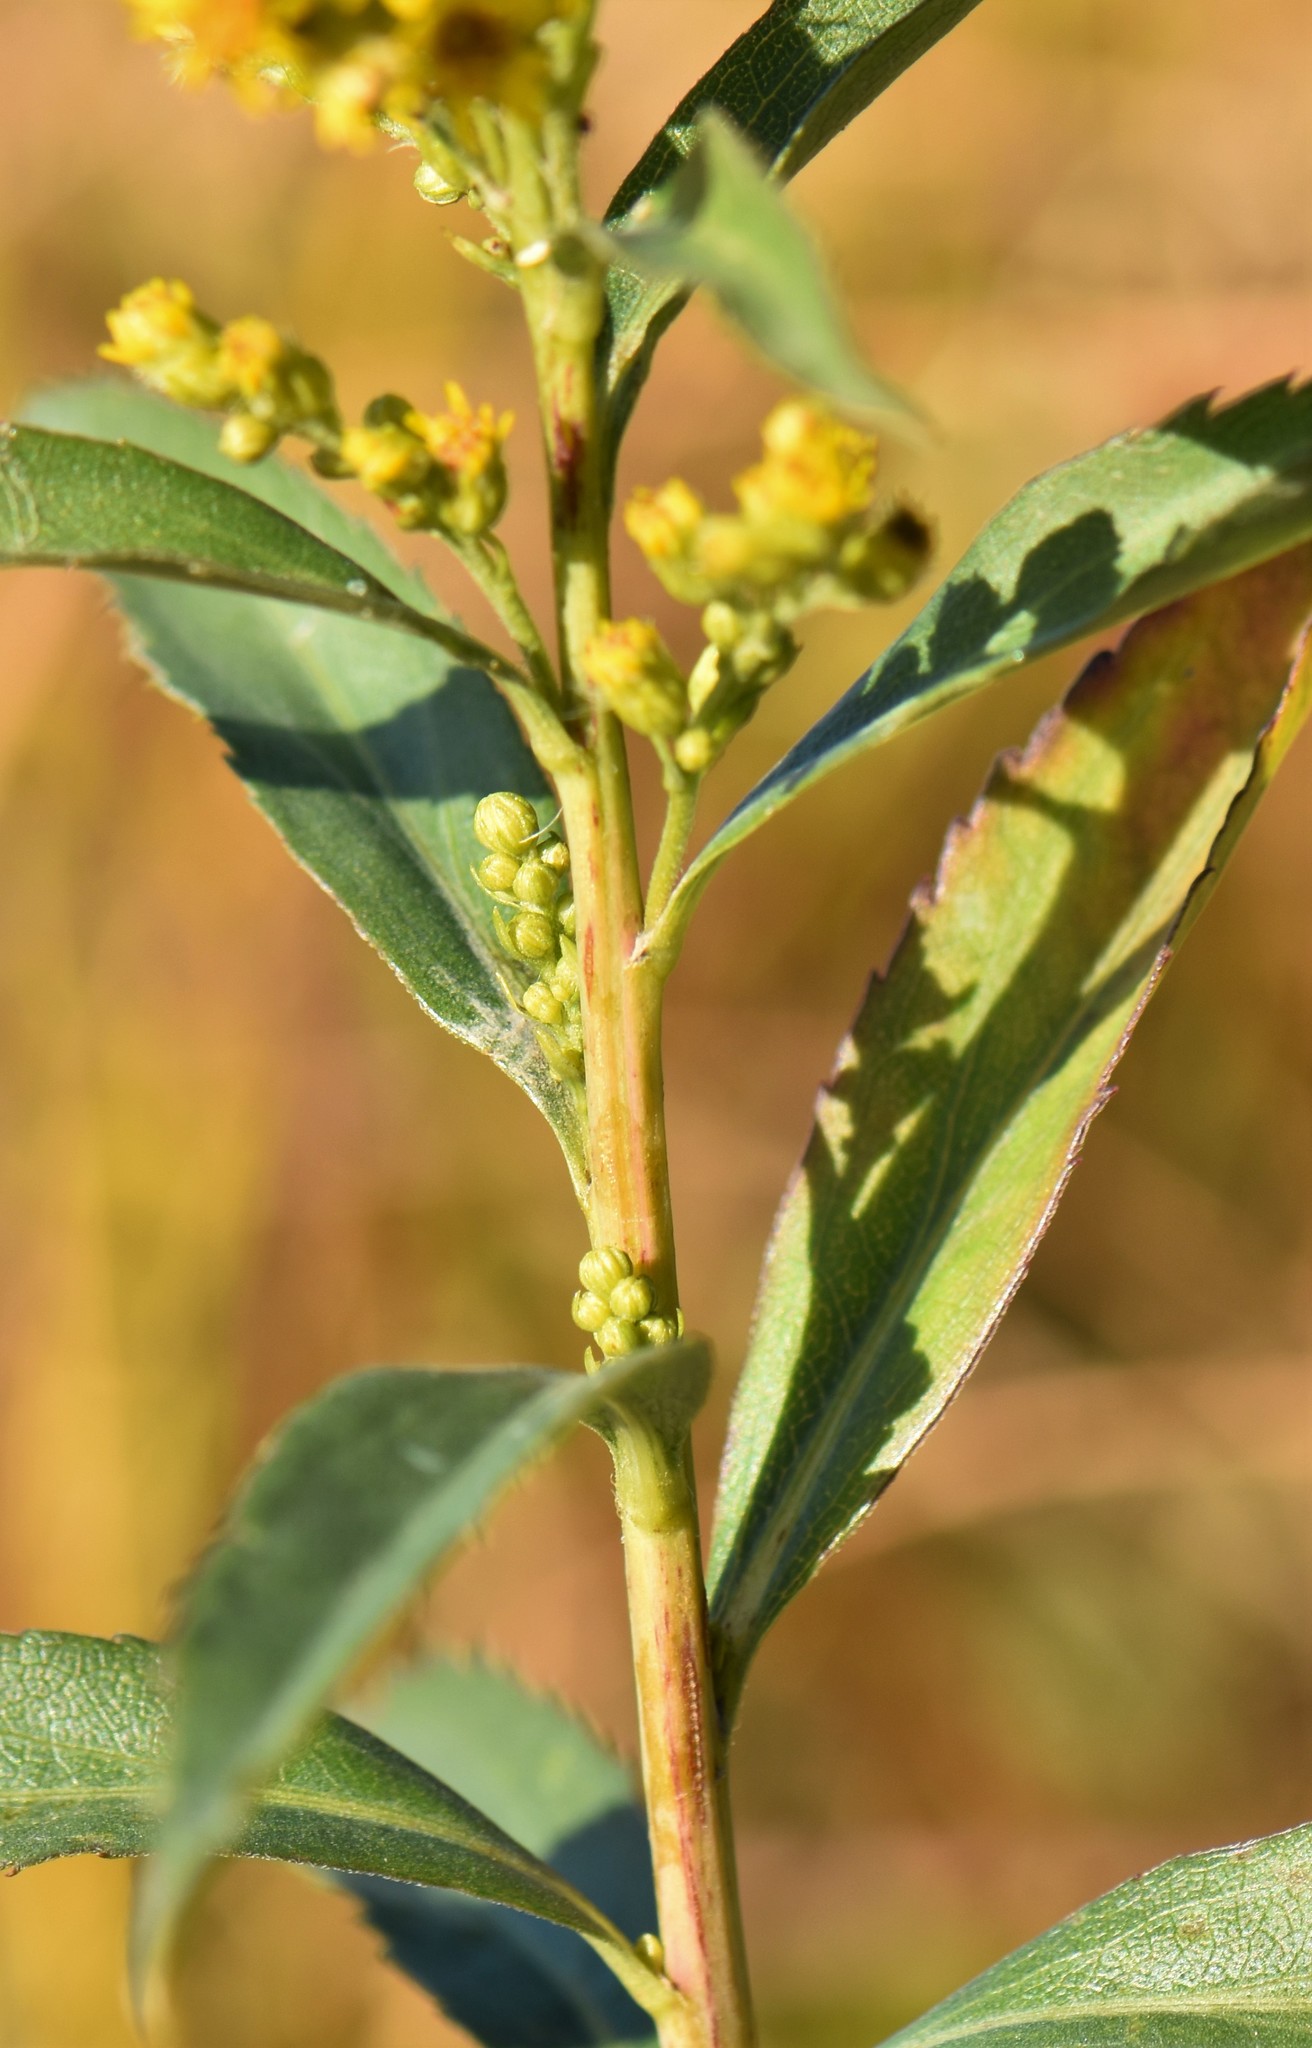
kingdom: Plantae
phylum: Tracheophyta
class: Magnoliopsida
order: Asterales
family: Asteraceae
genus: Solidago
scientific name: Solidago gigantea
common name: Giant goldenrod
